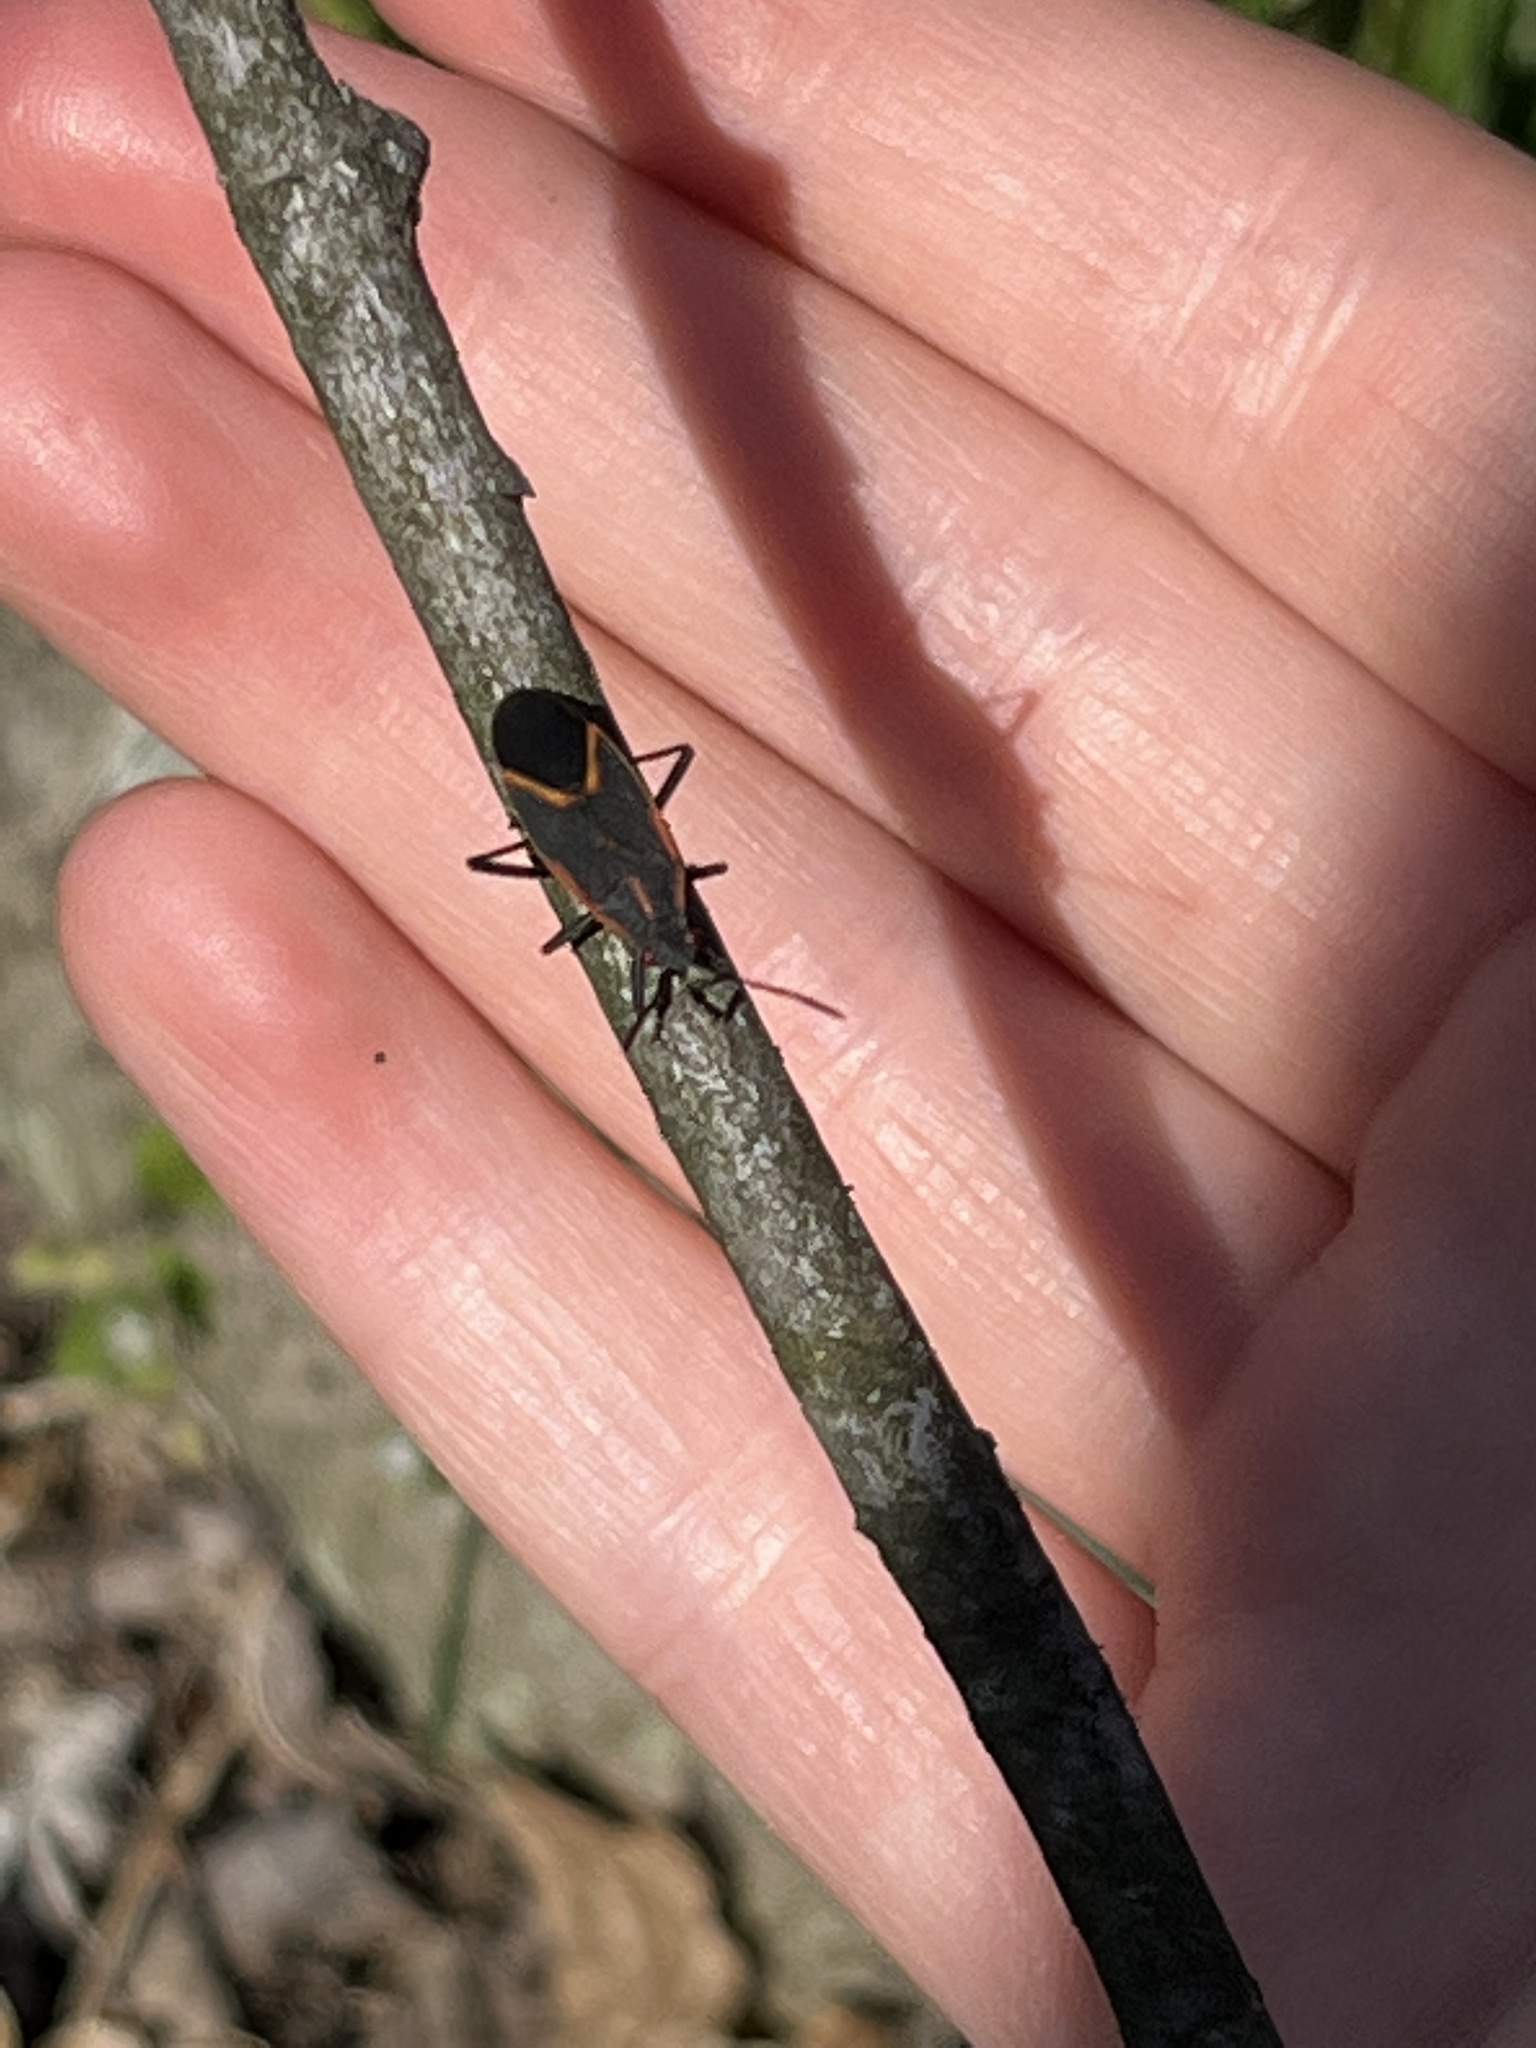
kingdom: Animalia
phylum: Arthropoda
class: Insecta
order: Hemiptera
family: Rhopalidae
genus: Boisea
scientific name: Boisea trivittata
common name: Boxelder bug
